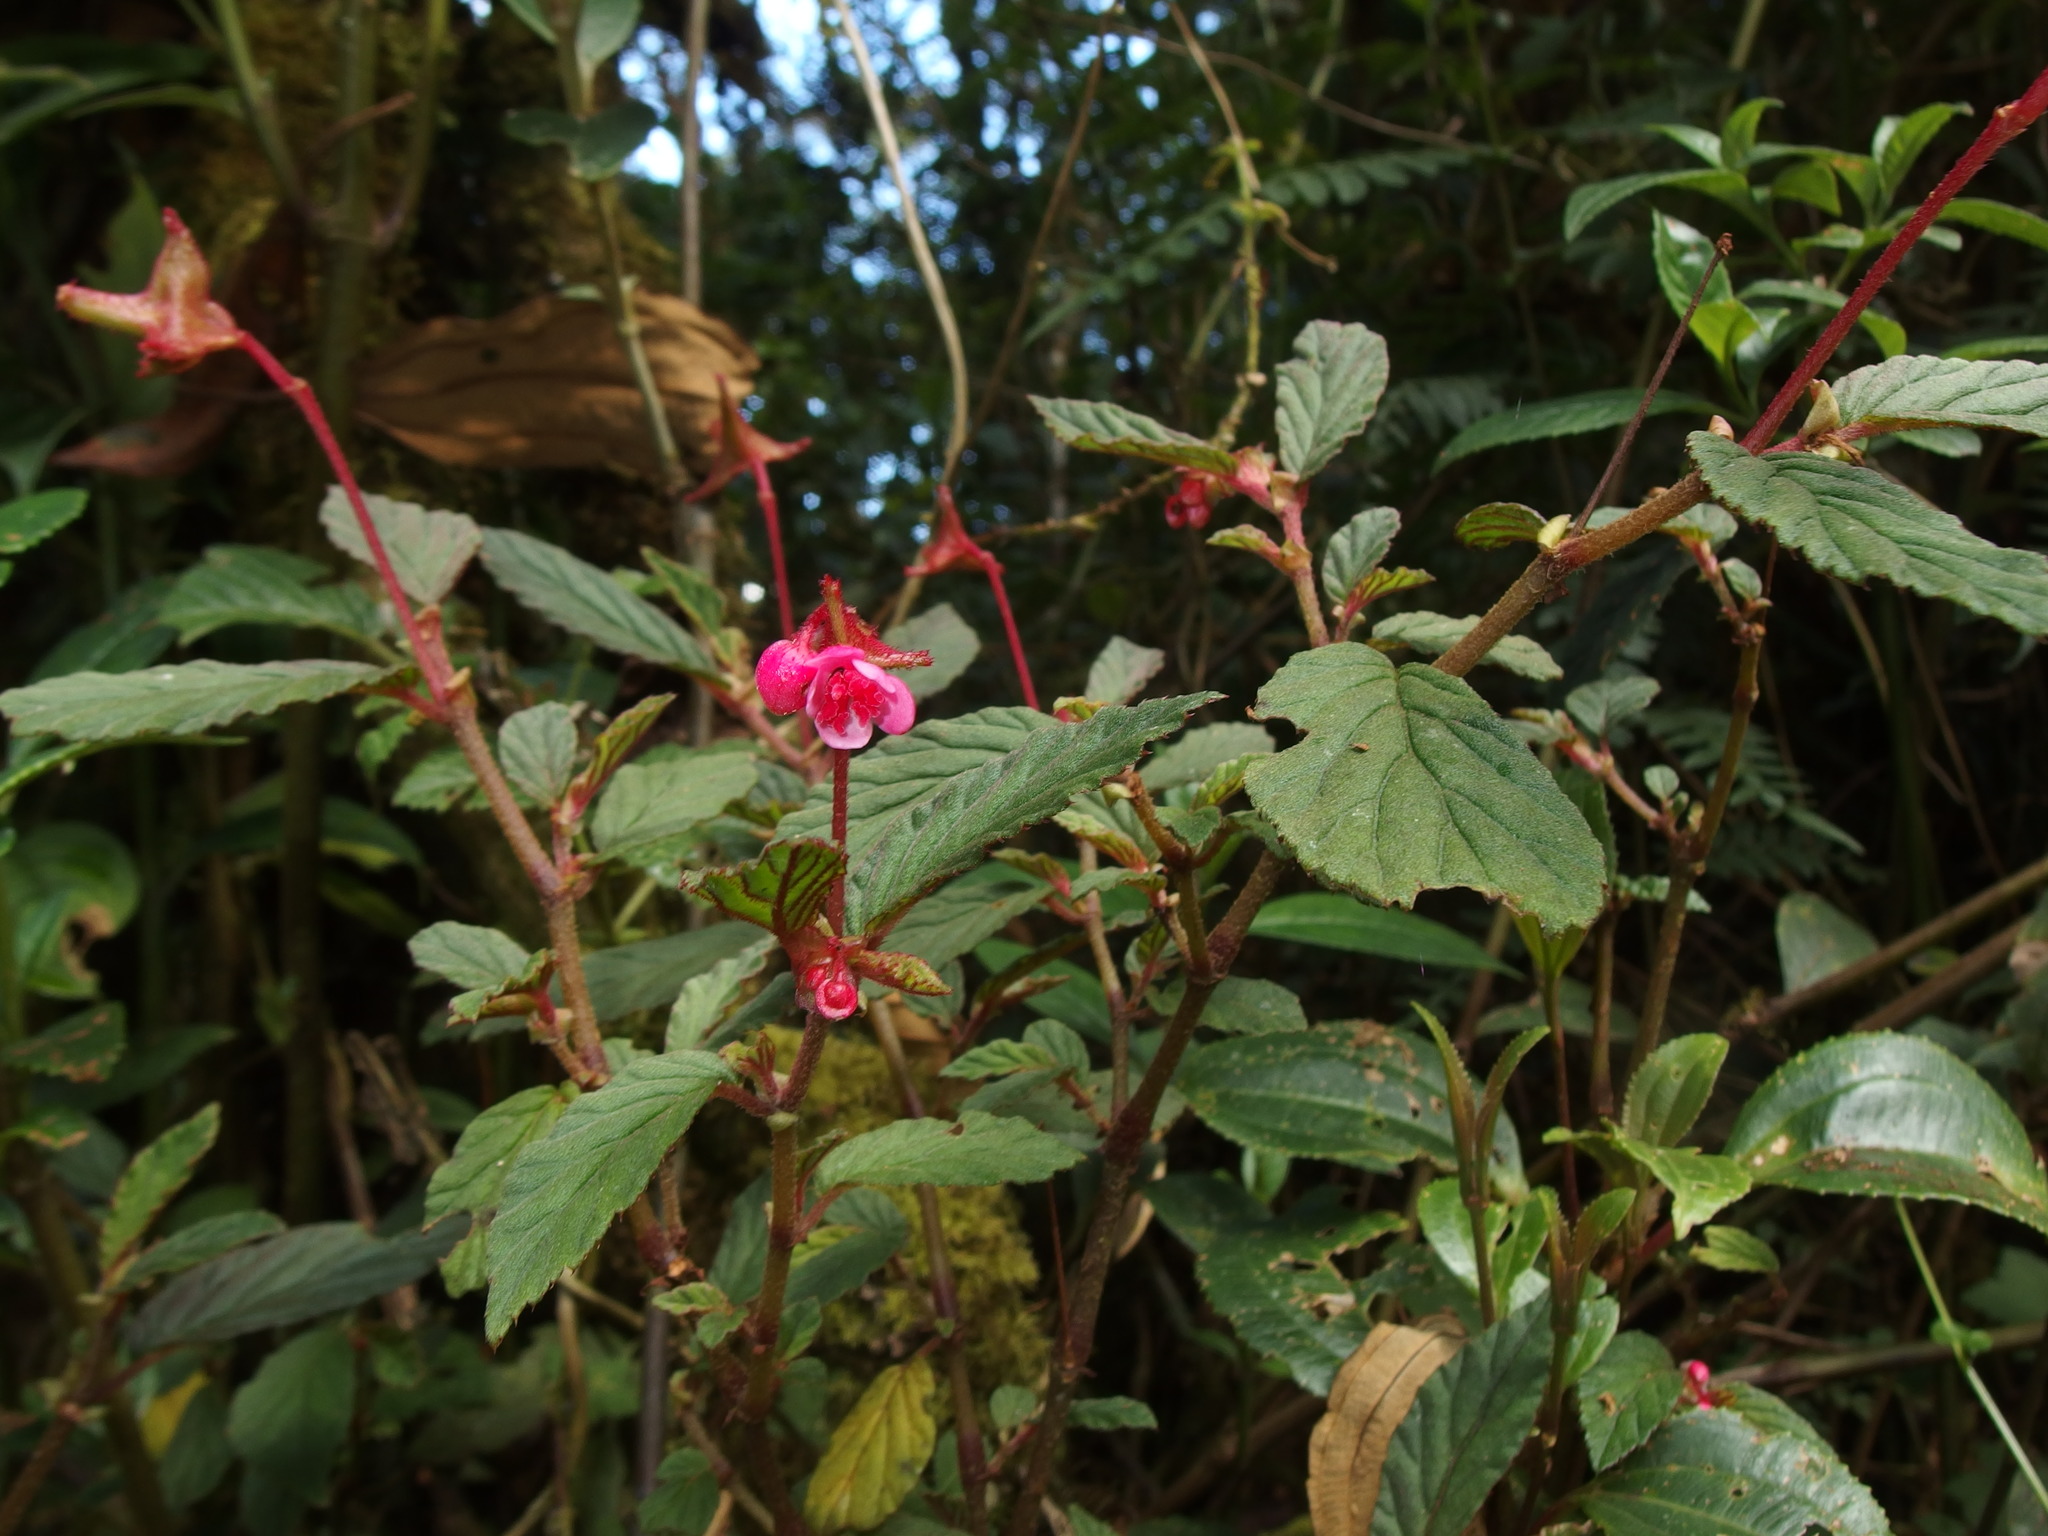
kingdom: Plantae
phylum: Tracheophyta
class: Magnoliopsida
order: Cucurbitales
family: Begoniaceae
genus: Begonia
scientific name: Begonia urticae
